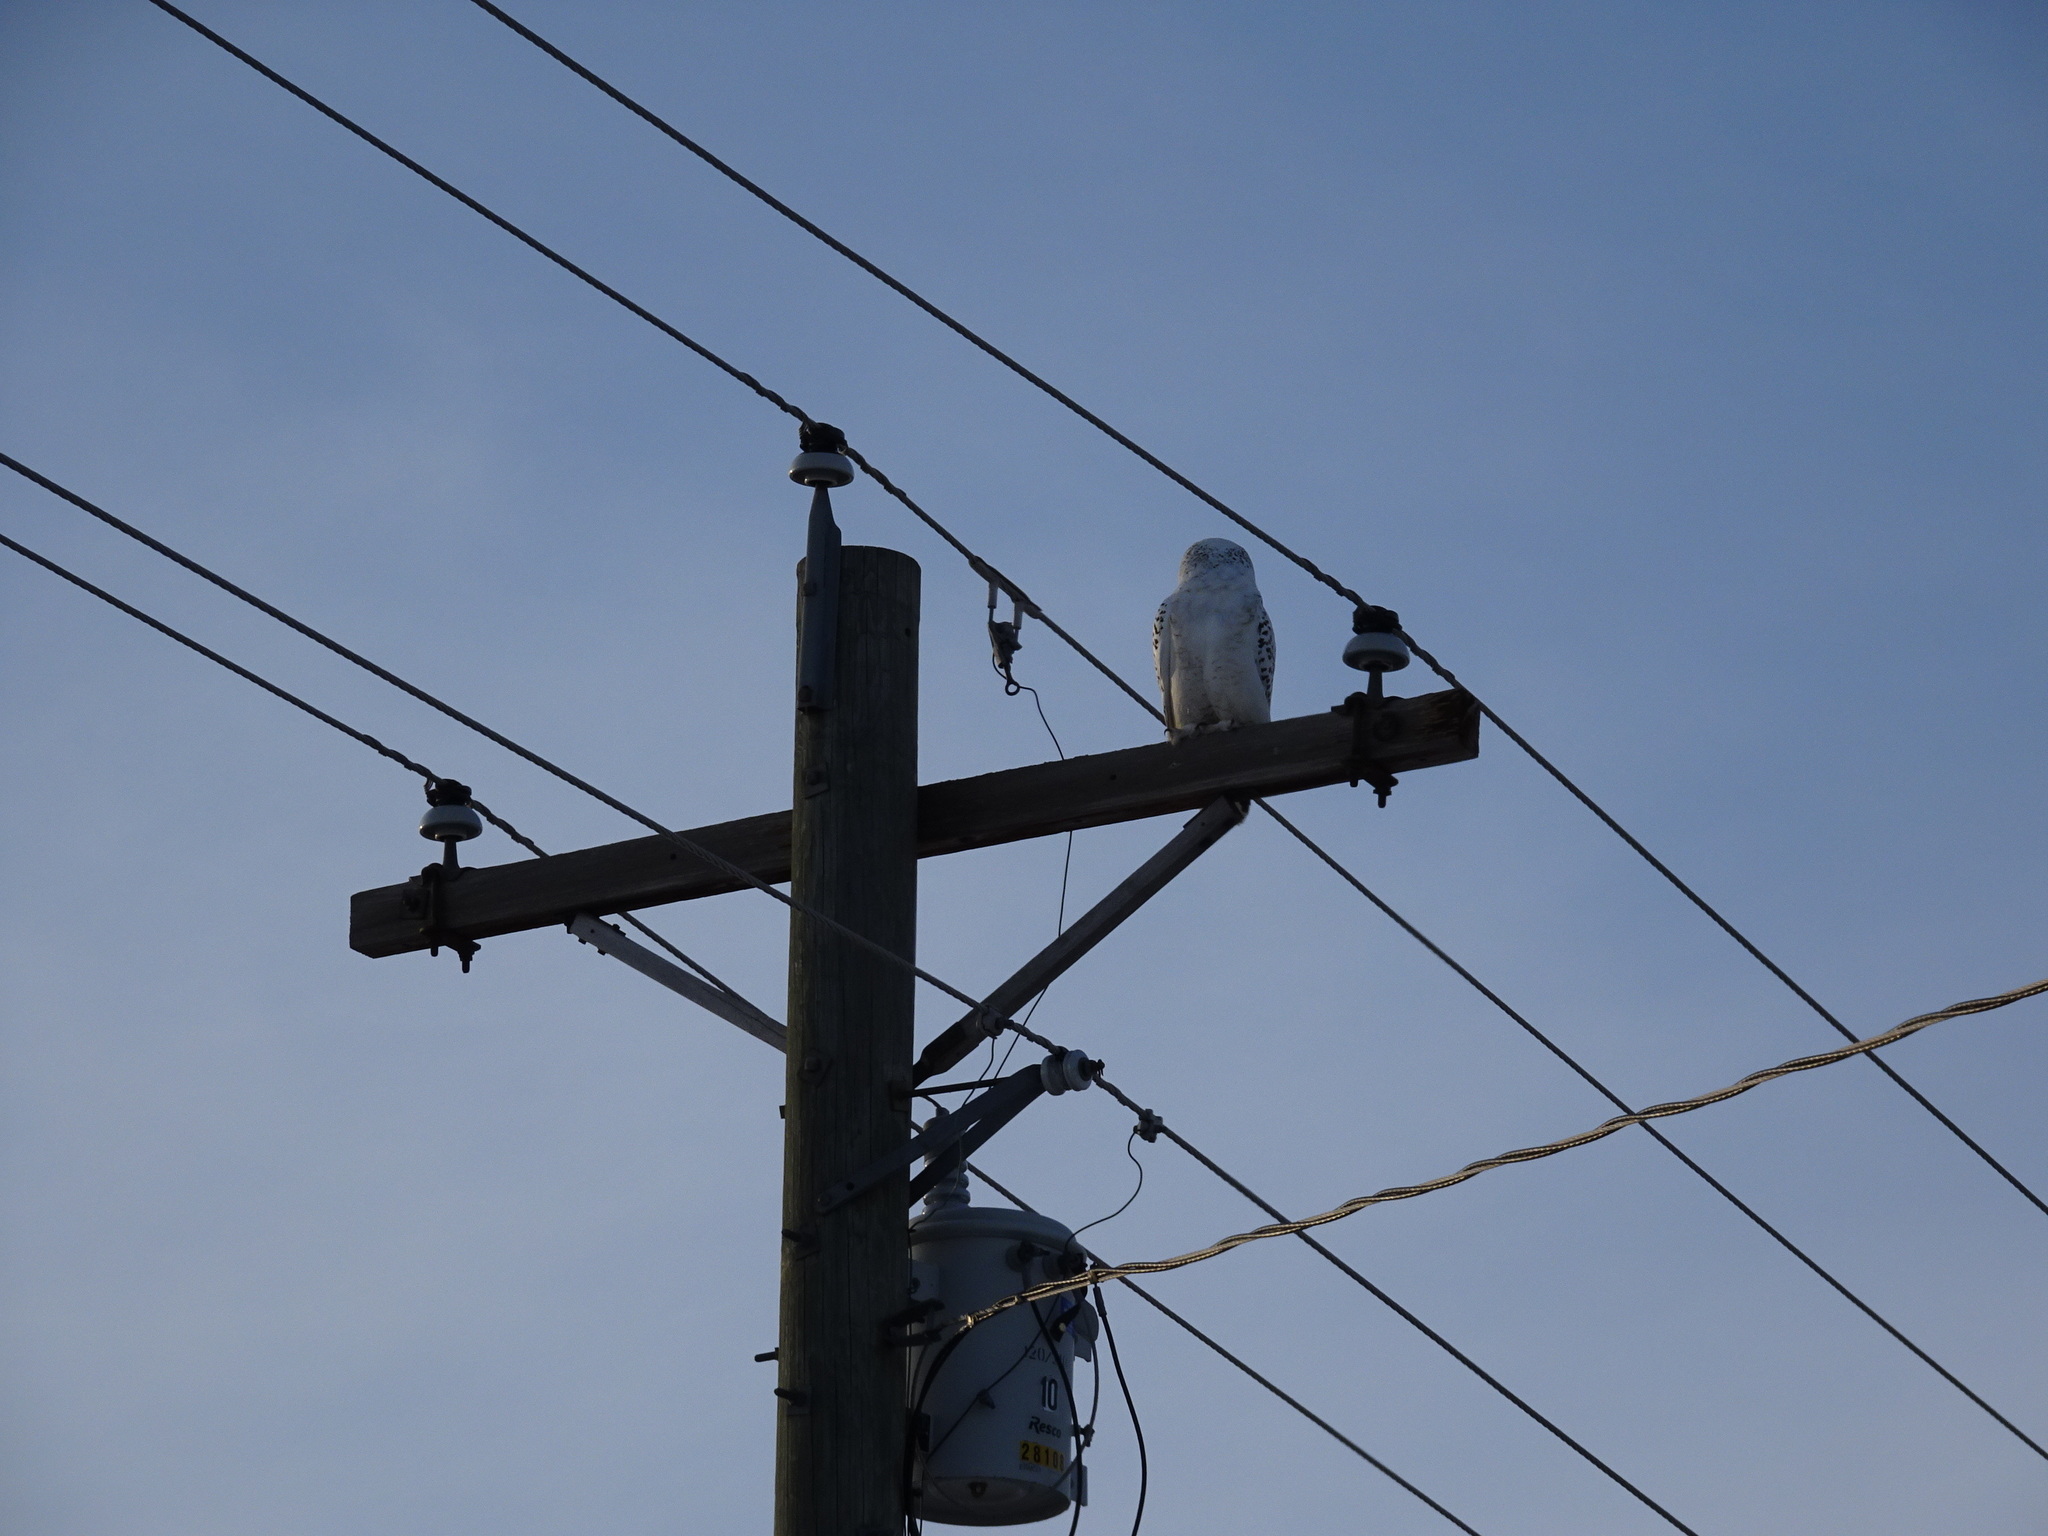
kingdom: Animalia
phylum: Chordata
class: Aves
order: Strigiformes
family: Strigidae
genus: Bubo
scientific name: Bubo scandiacus
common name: Snowy owl
